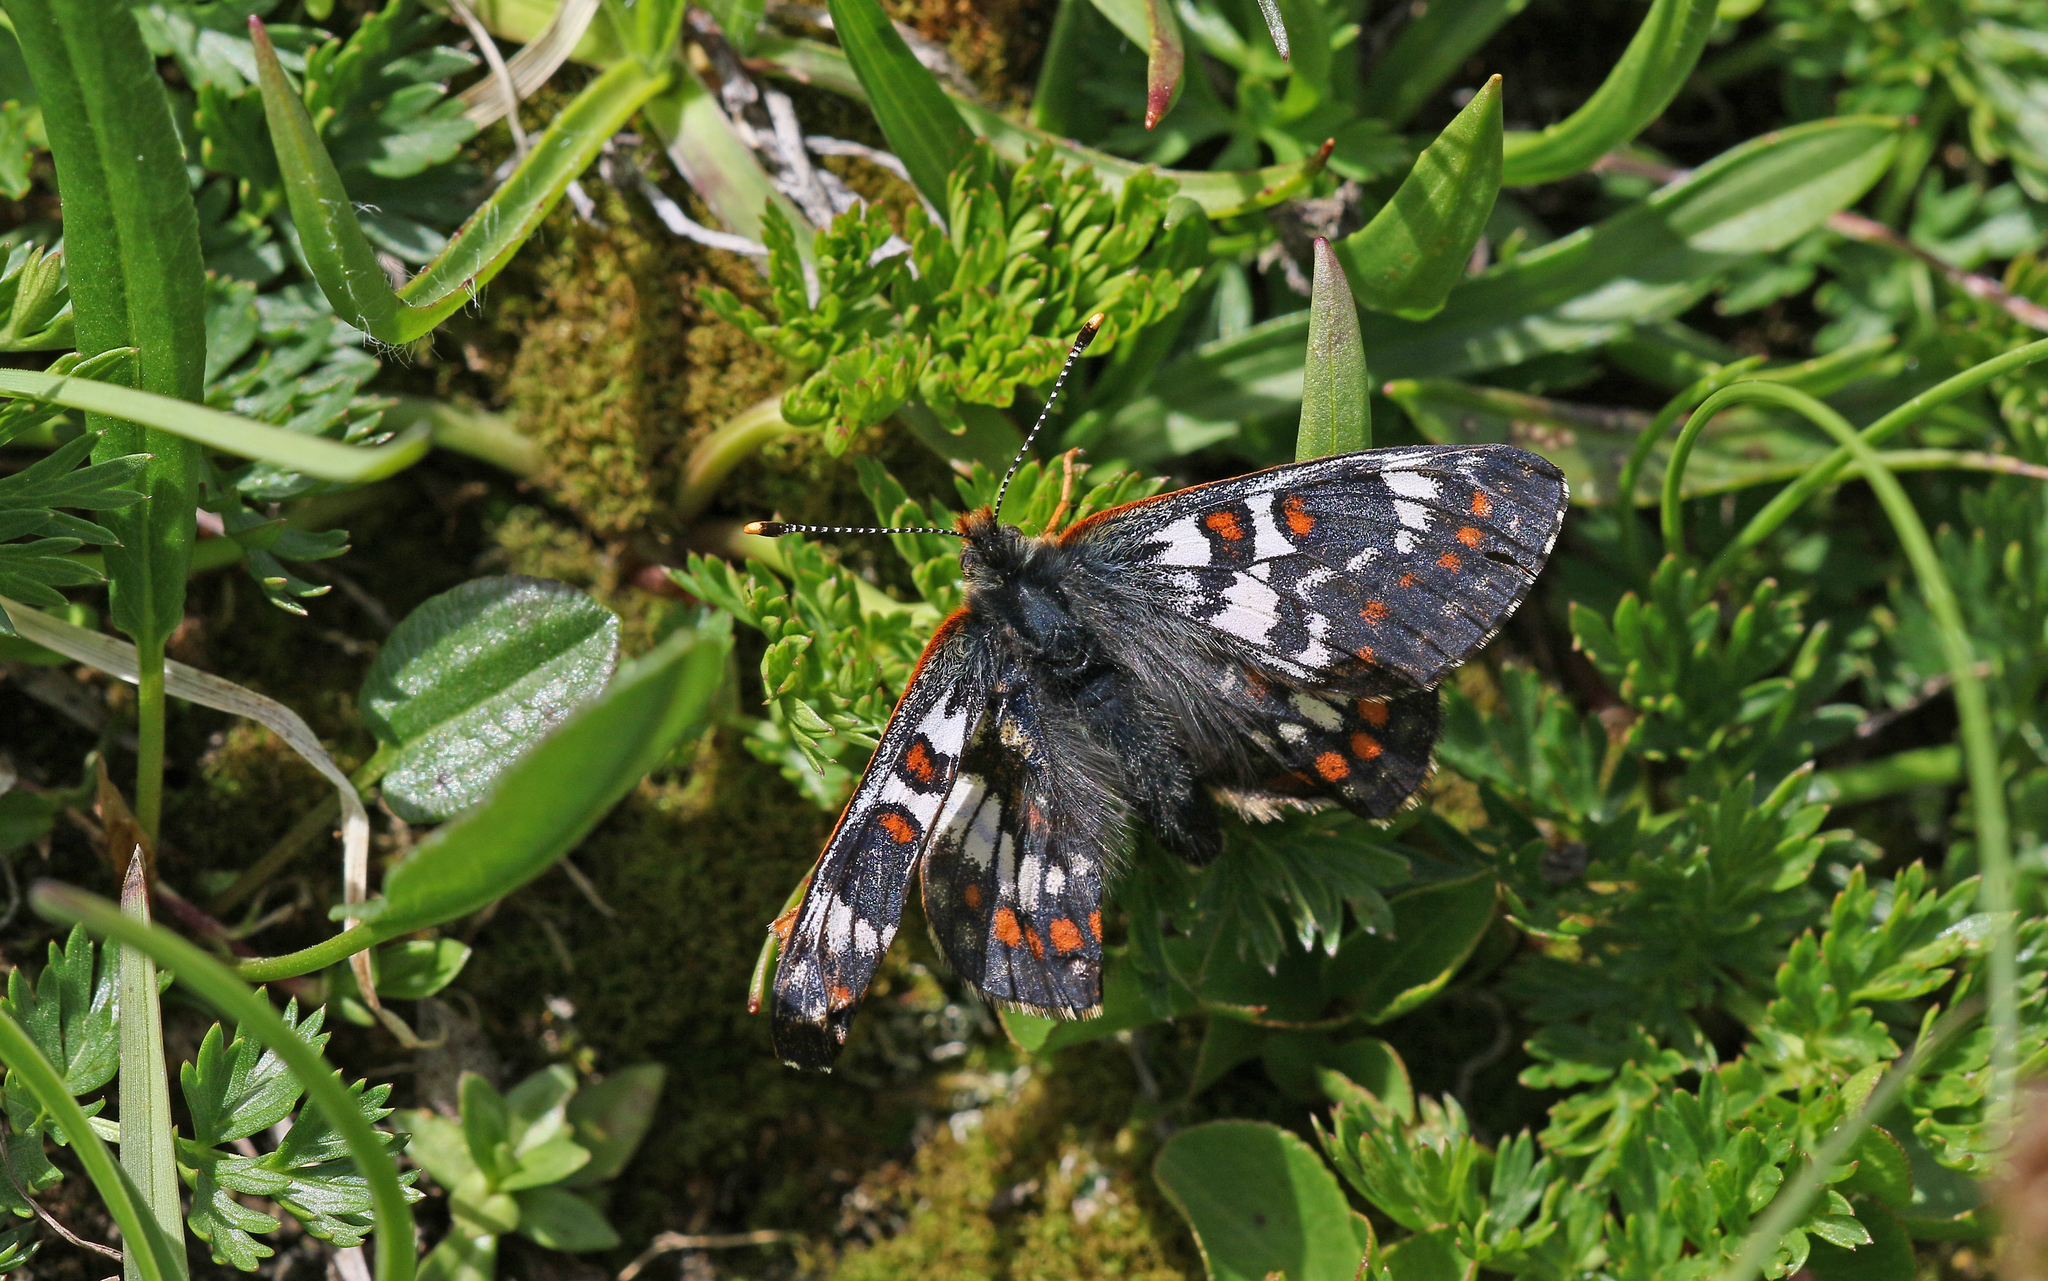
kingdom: Animalia
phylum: Arthropoda
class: Insecta
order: Lepidoptera
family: Nymphalidae
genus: Hypodryas
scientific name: Hypodryas cynthia
